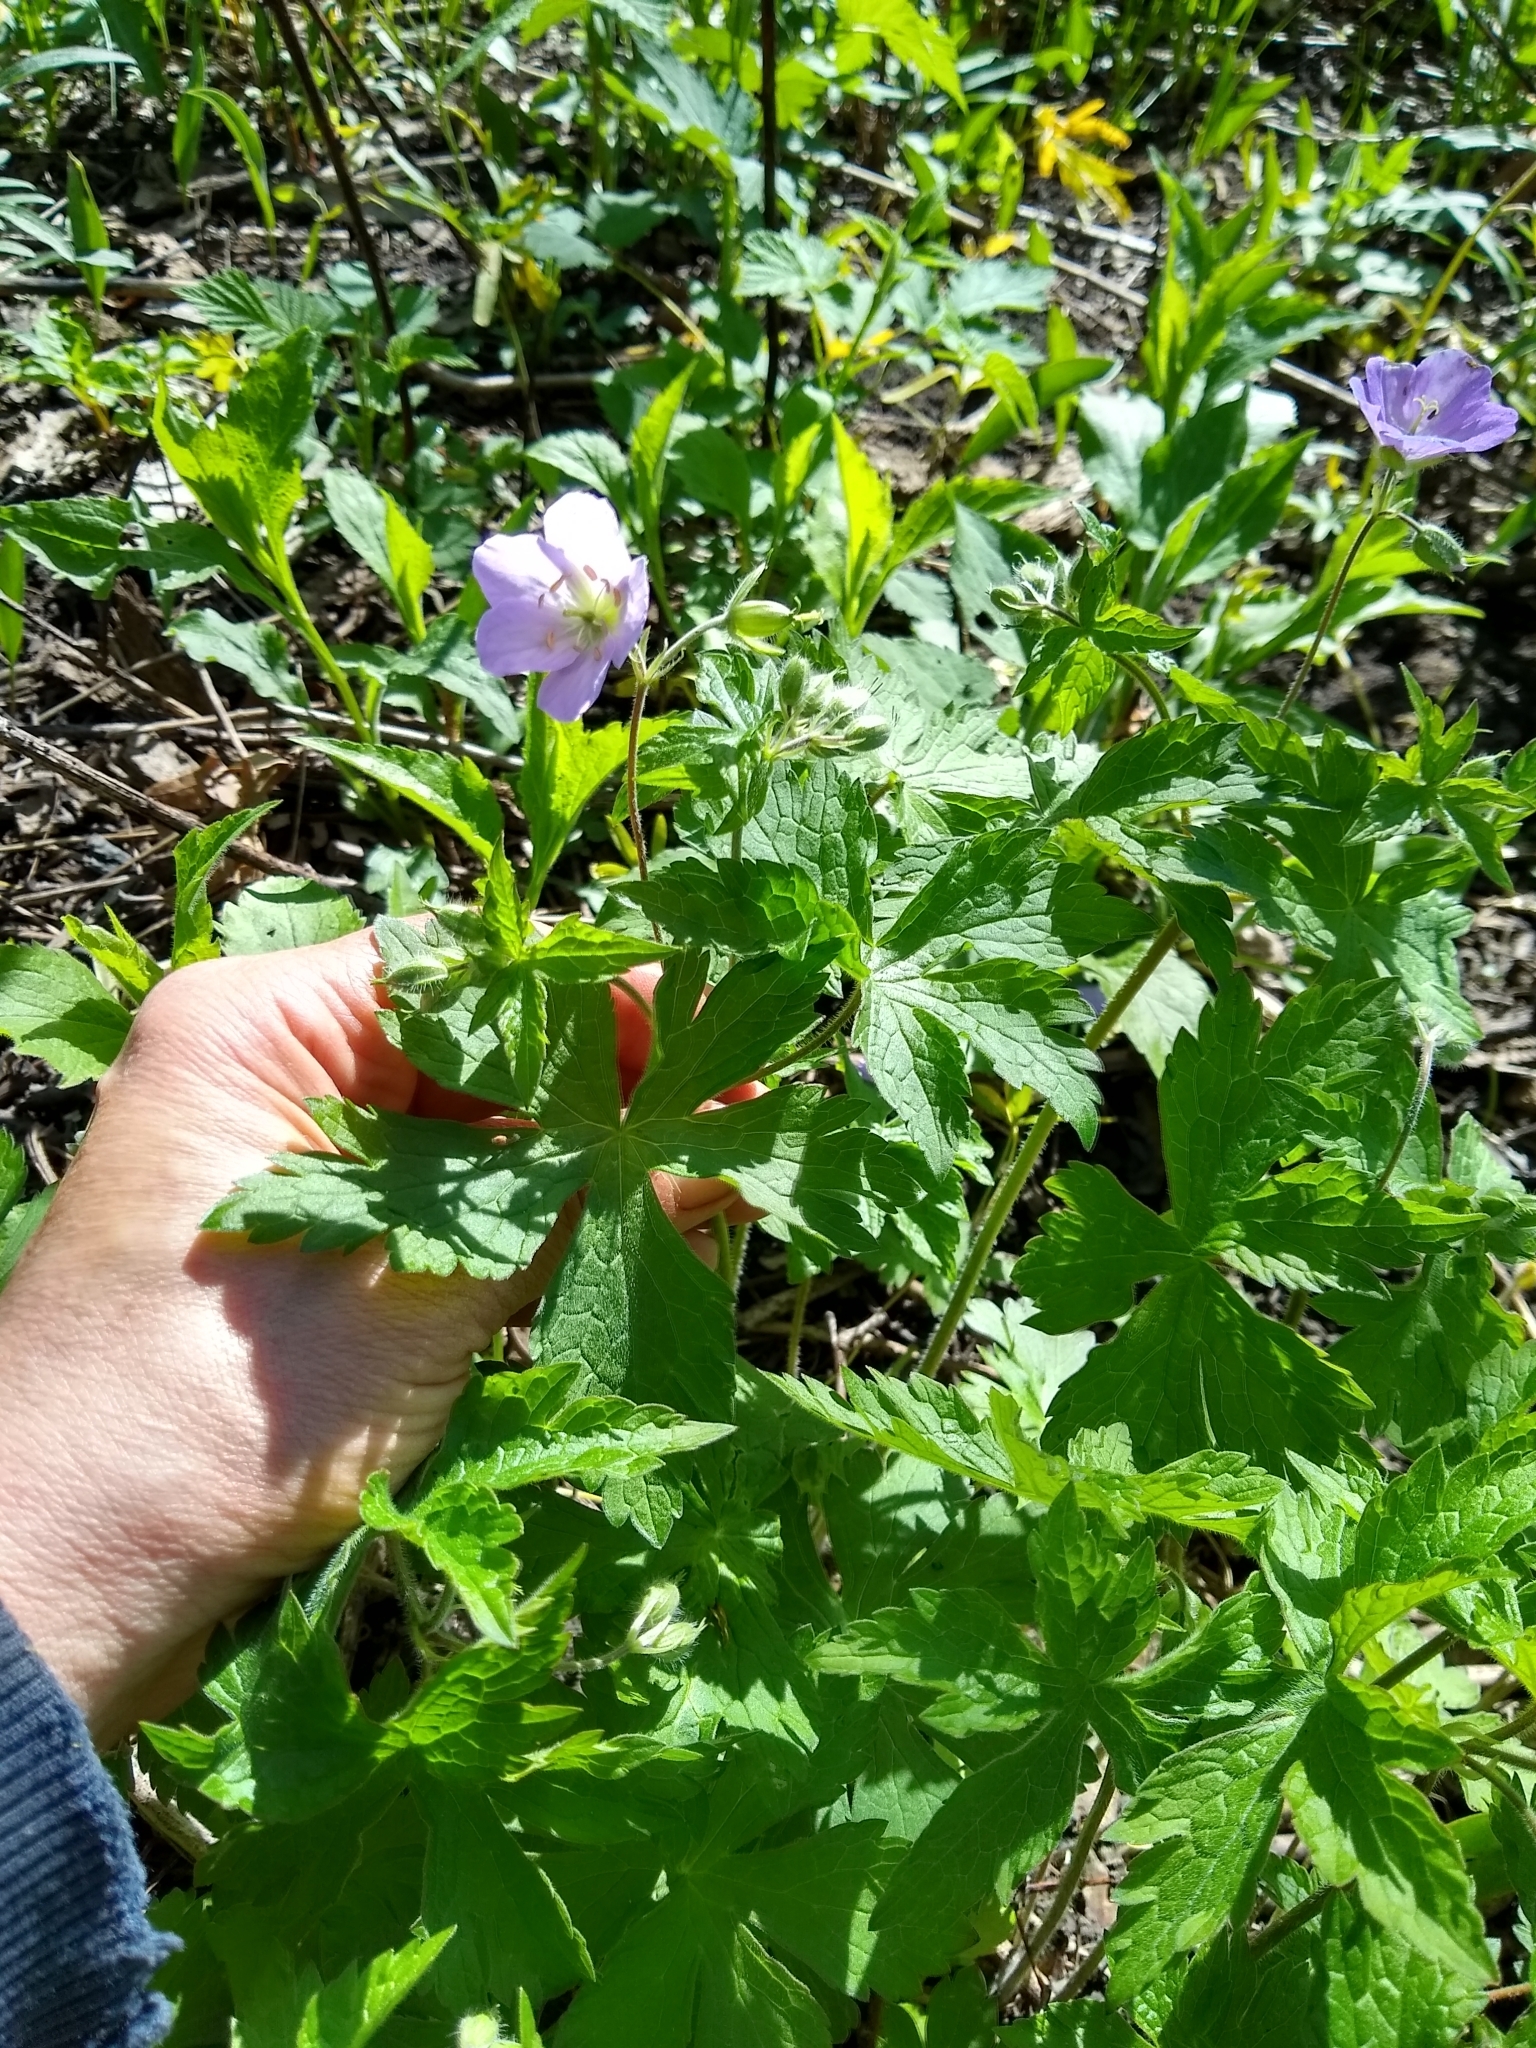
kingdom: Plantae
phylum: Tracheophyta
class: Magnoliopsida
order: Geraniales
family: Geraniaceae
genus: Geranium
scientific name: Geranium maculatum
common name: Spotted geranium
